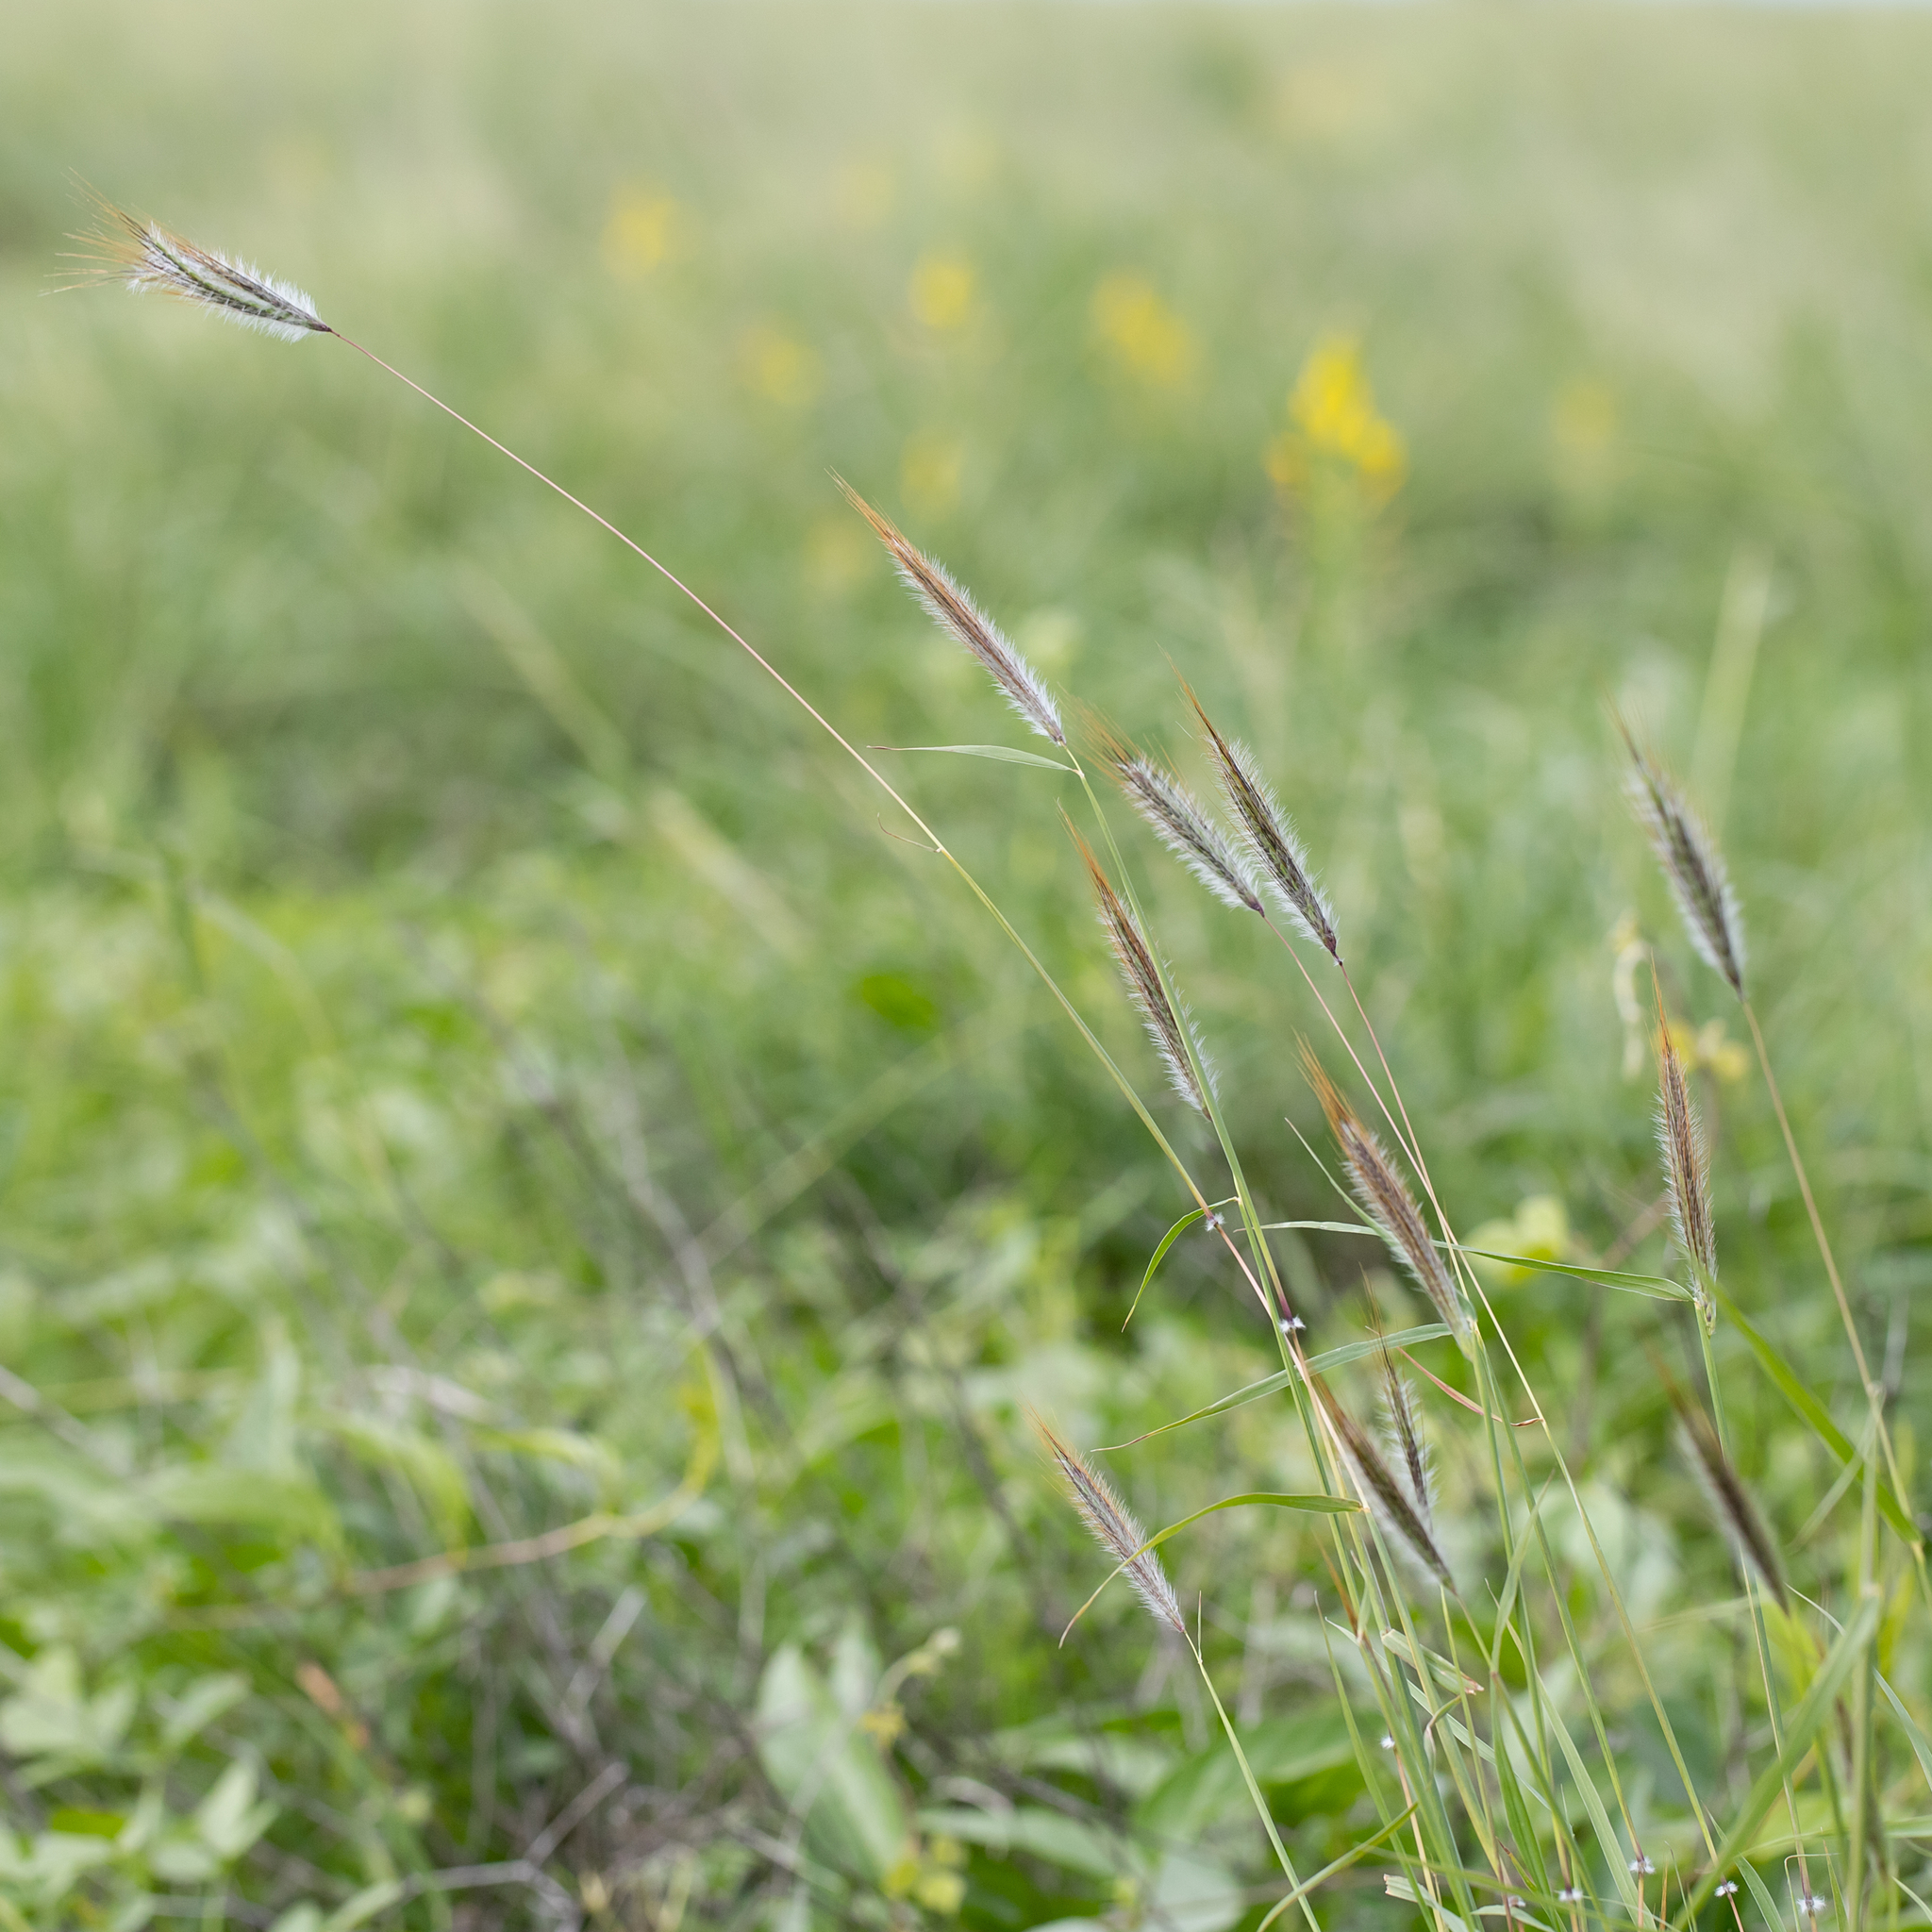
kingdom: Plantae
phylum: Tracheophyta
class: Liliopsida
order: Poales
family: Poaceae
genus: Dichanthium
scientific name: Dichanthium sericeum
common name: Silky bluestem
